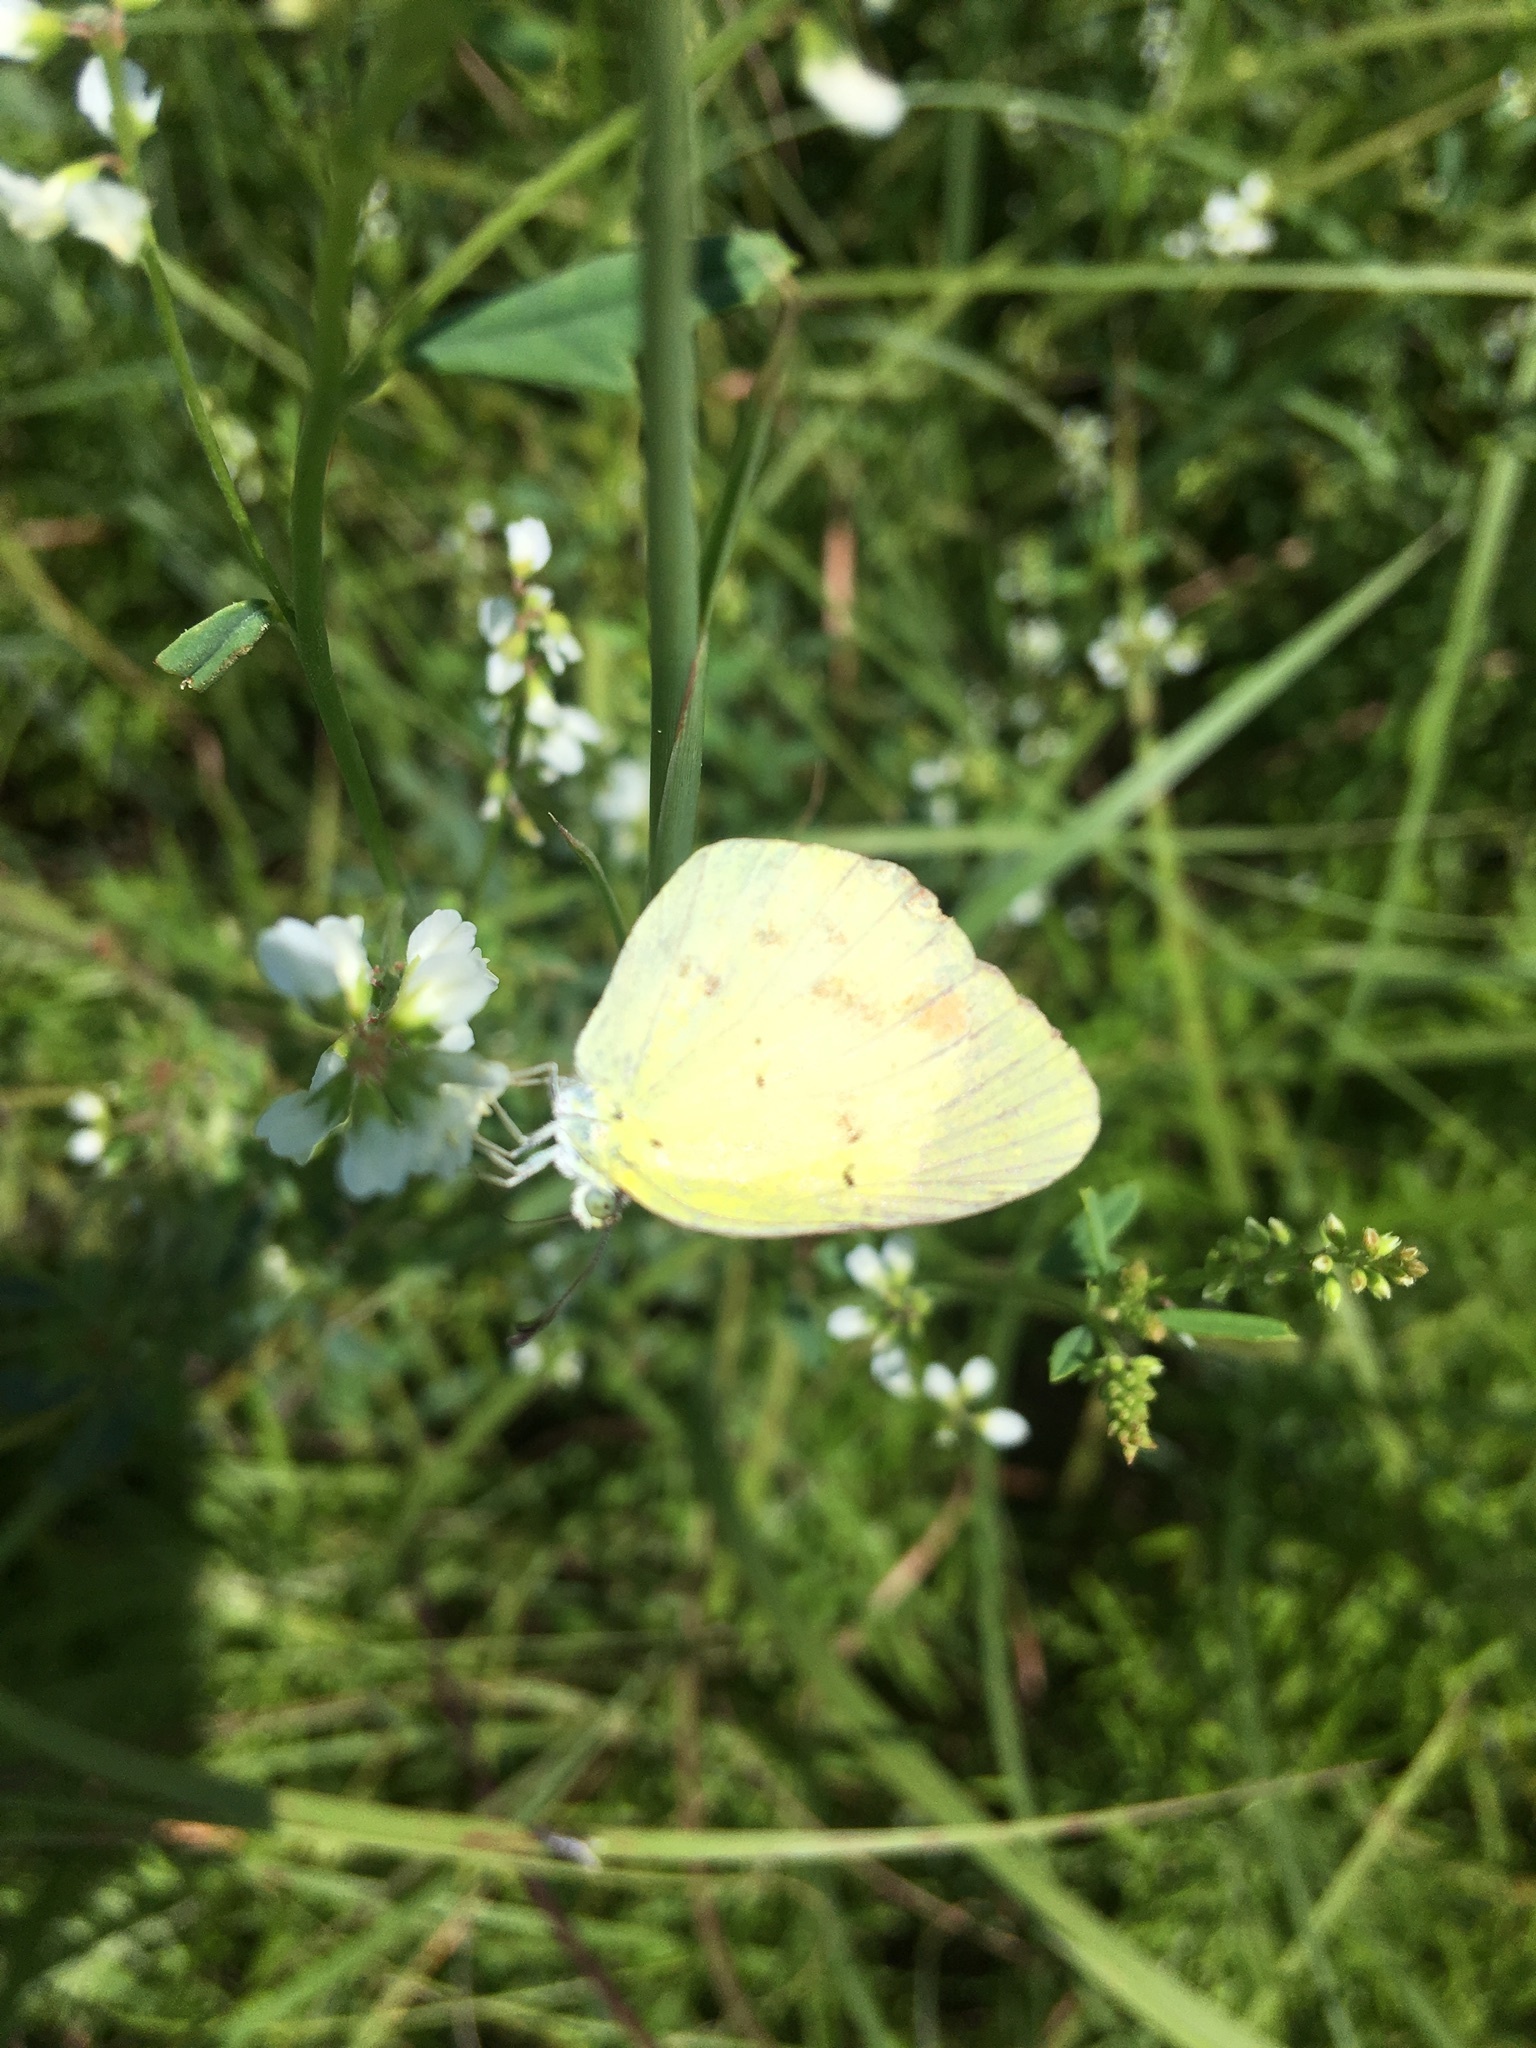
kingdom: Animalia
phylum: Arthropoda
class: Insecta
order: Lepidoptera
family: Pieridae
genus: Pyrisitia
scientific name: Pyrisitia lisa
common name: Little yellow
